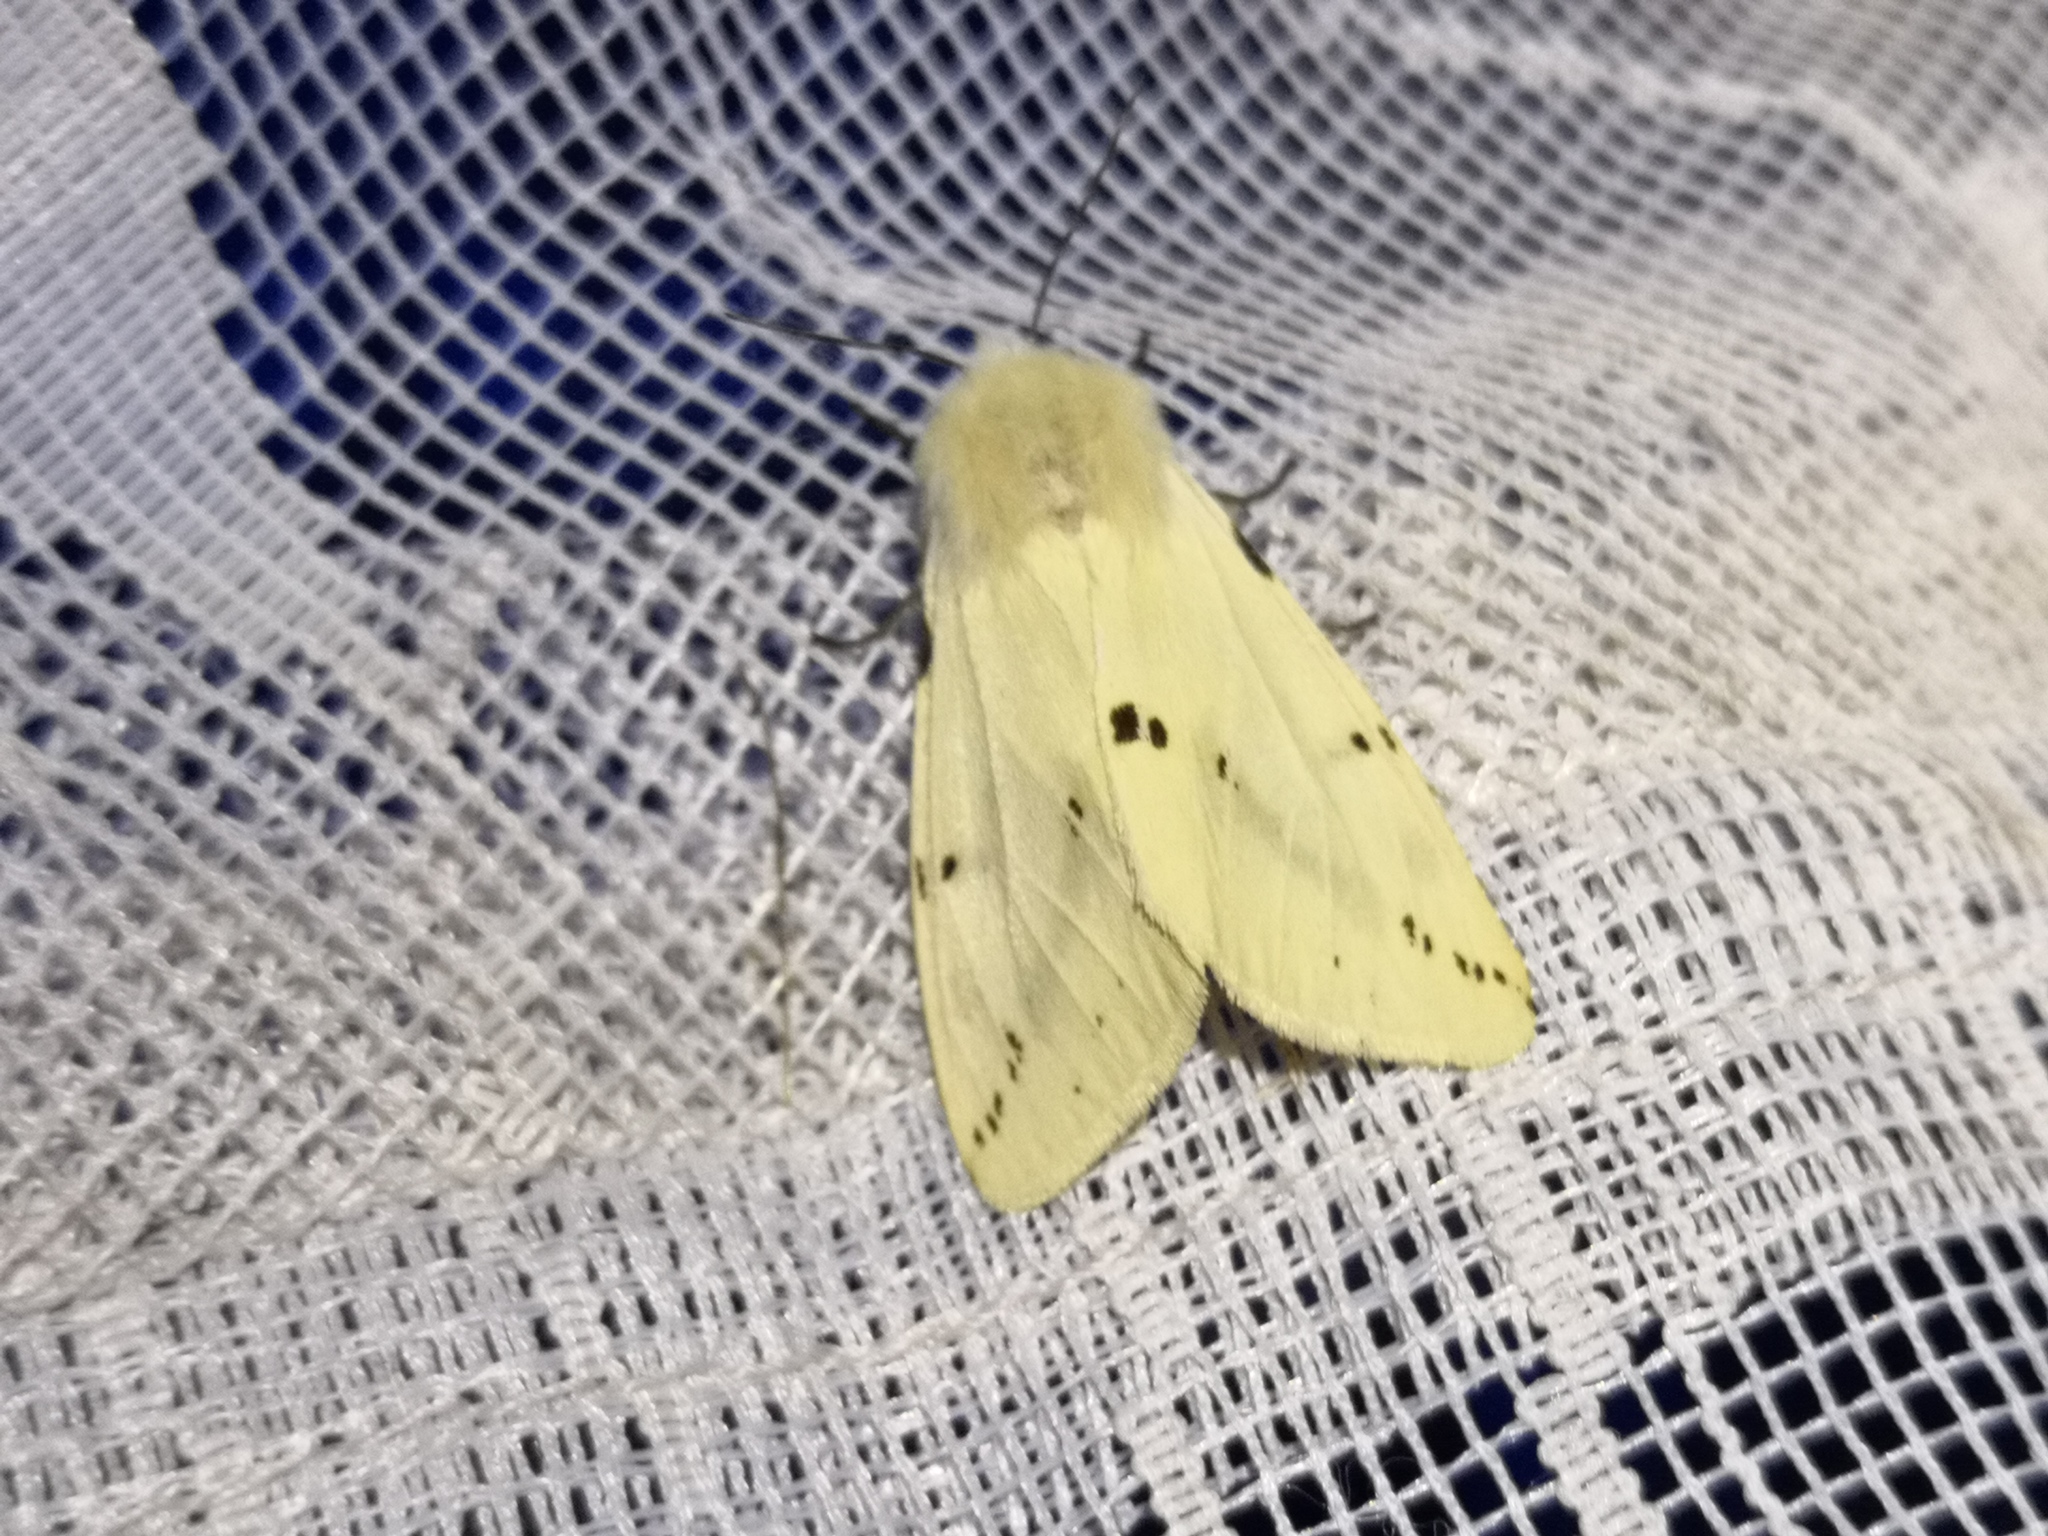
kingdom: Animalia
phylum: Arthropoda
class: Insecta
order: Lepidoptera
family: Erebidae
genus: Spilarctia
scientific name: Spilarctia lutea
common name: Buff ermine
